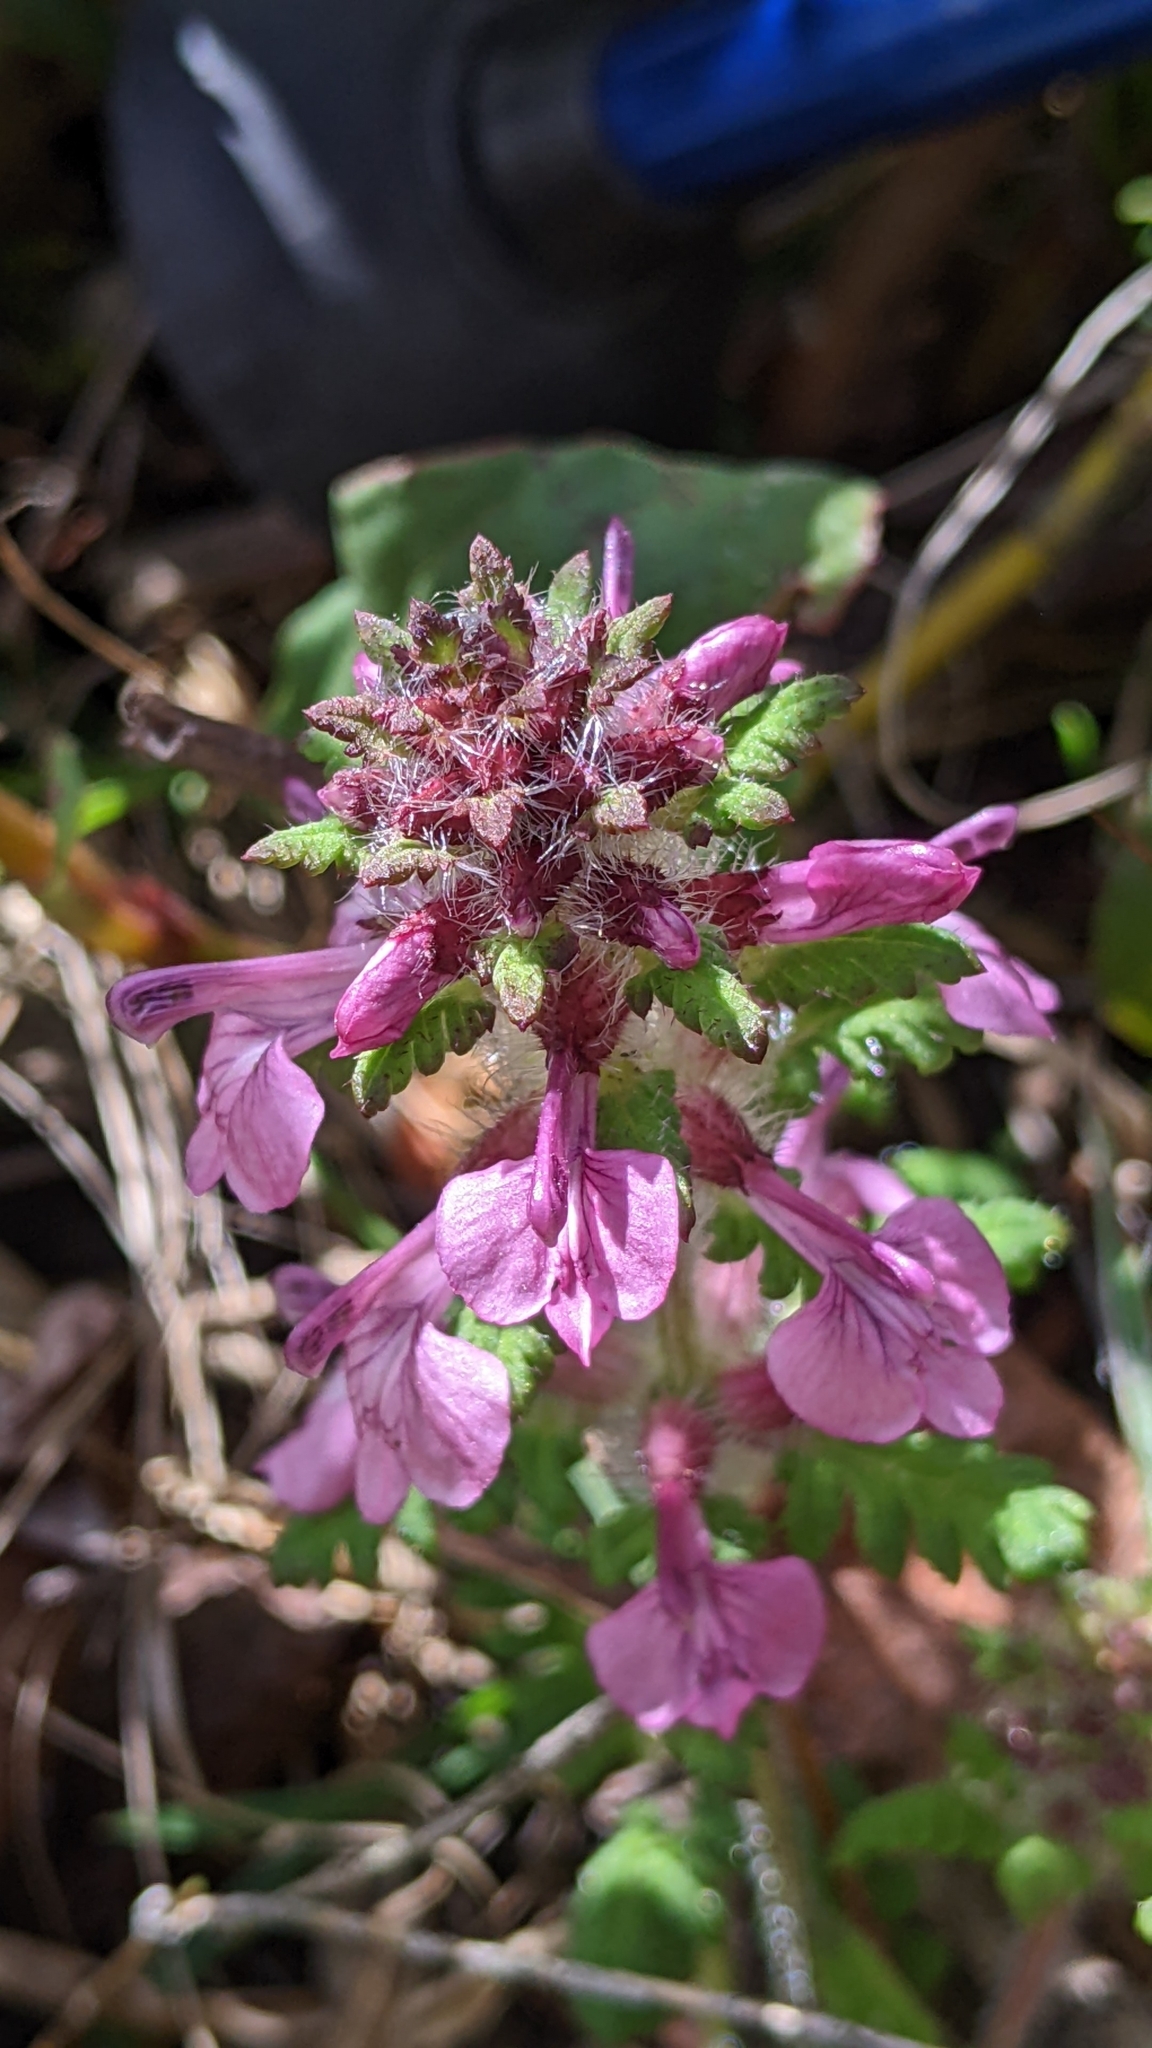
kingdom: Plantae
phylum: Tracheophyta
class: Magnoliopsida
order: Lamiales
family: Orobanchaceae
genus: Pedicularis
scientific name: Pedicularis refracta
